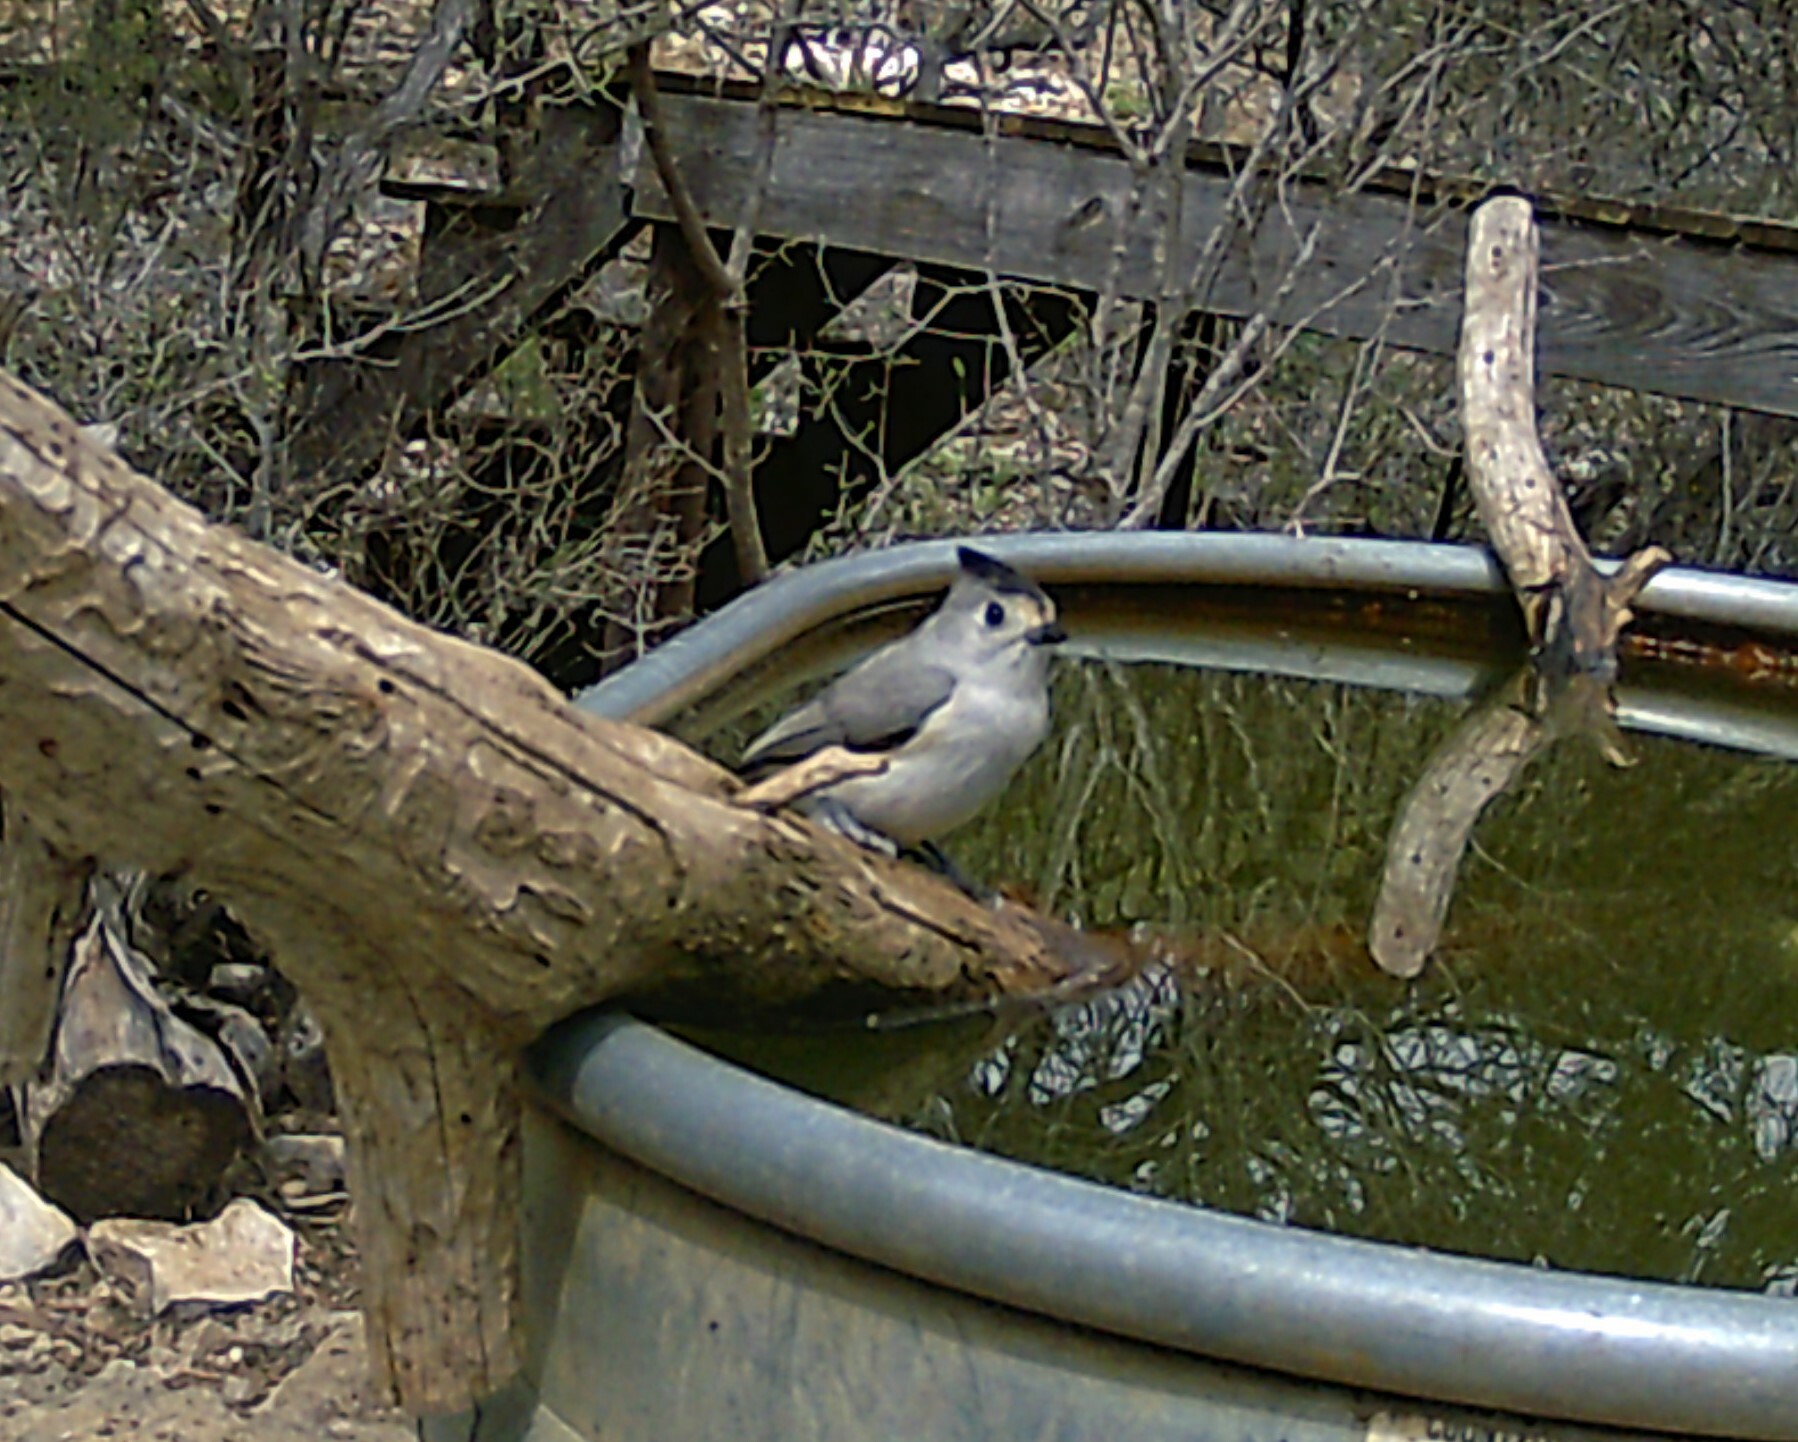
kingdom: Animalia
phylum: Chordata
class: Aves
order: Passeriformes
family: Paridae
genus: Baeolophus
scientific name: Baeolophus atricristatus
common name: Black-crested titmouse
